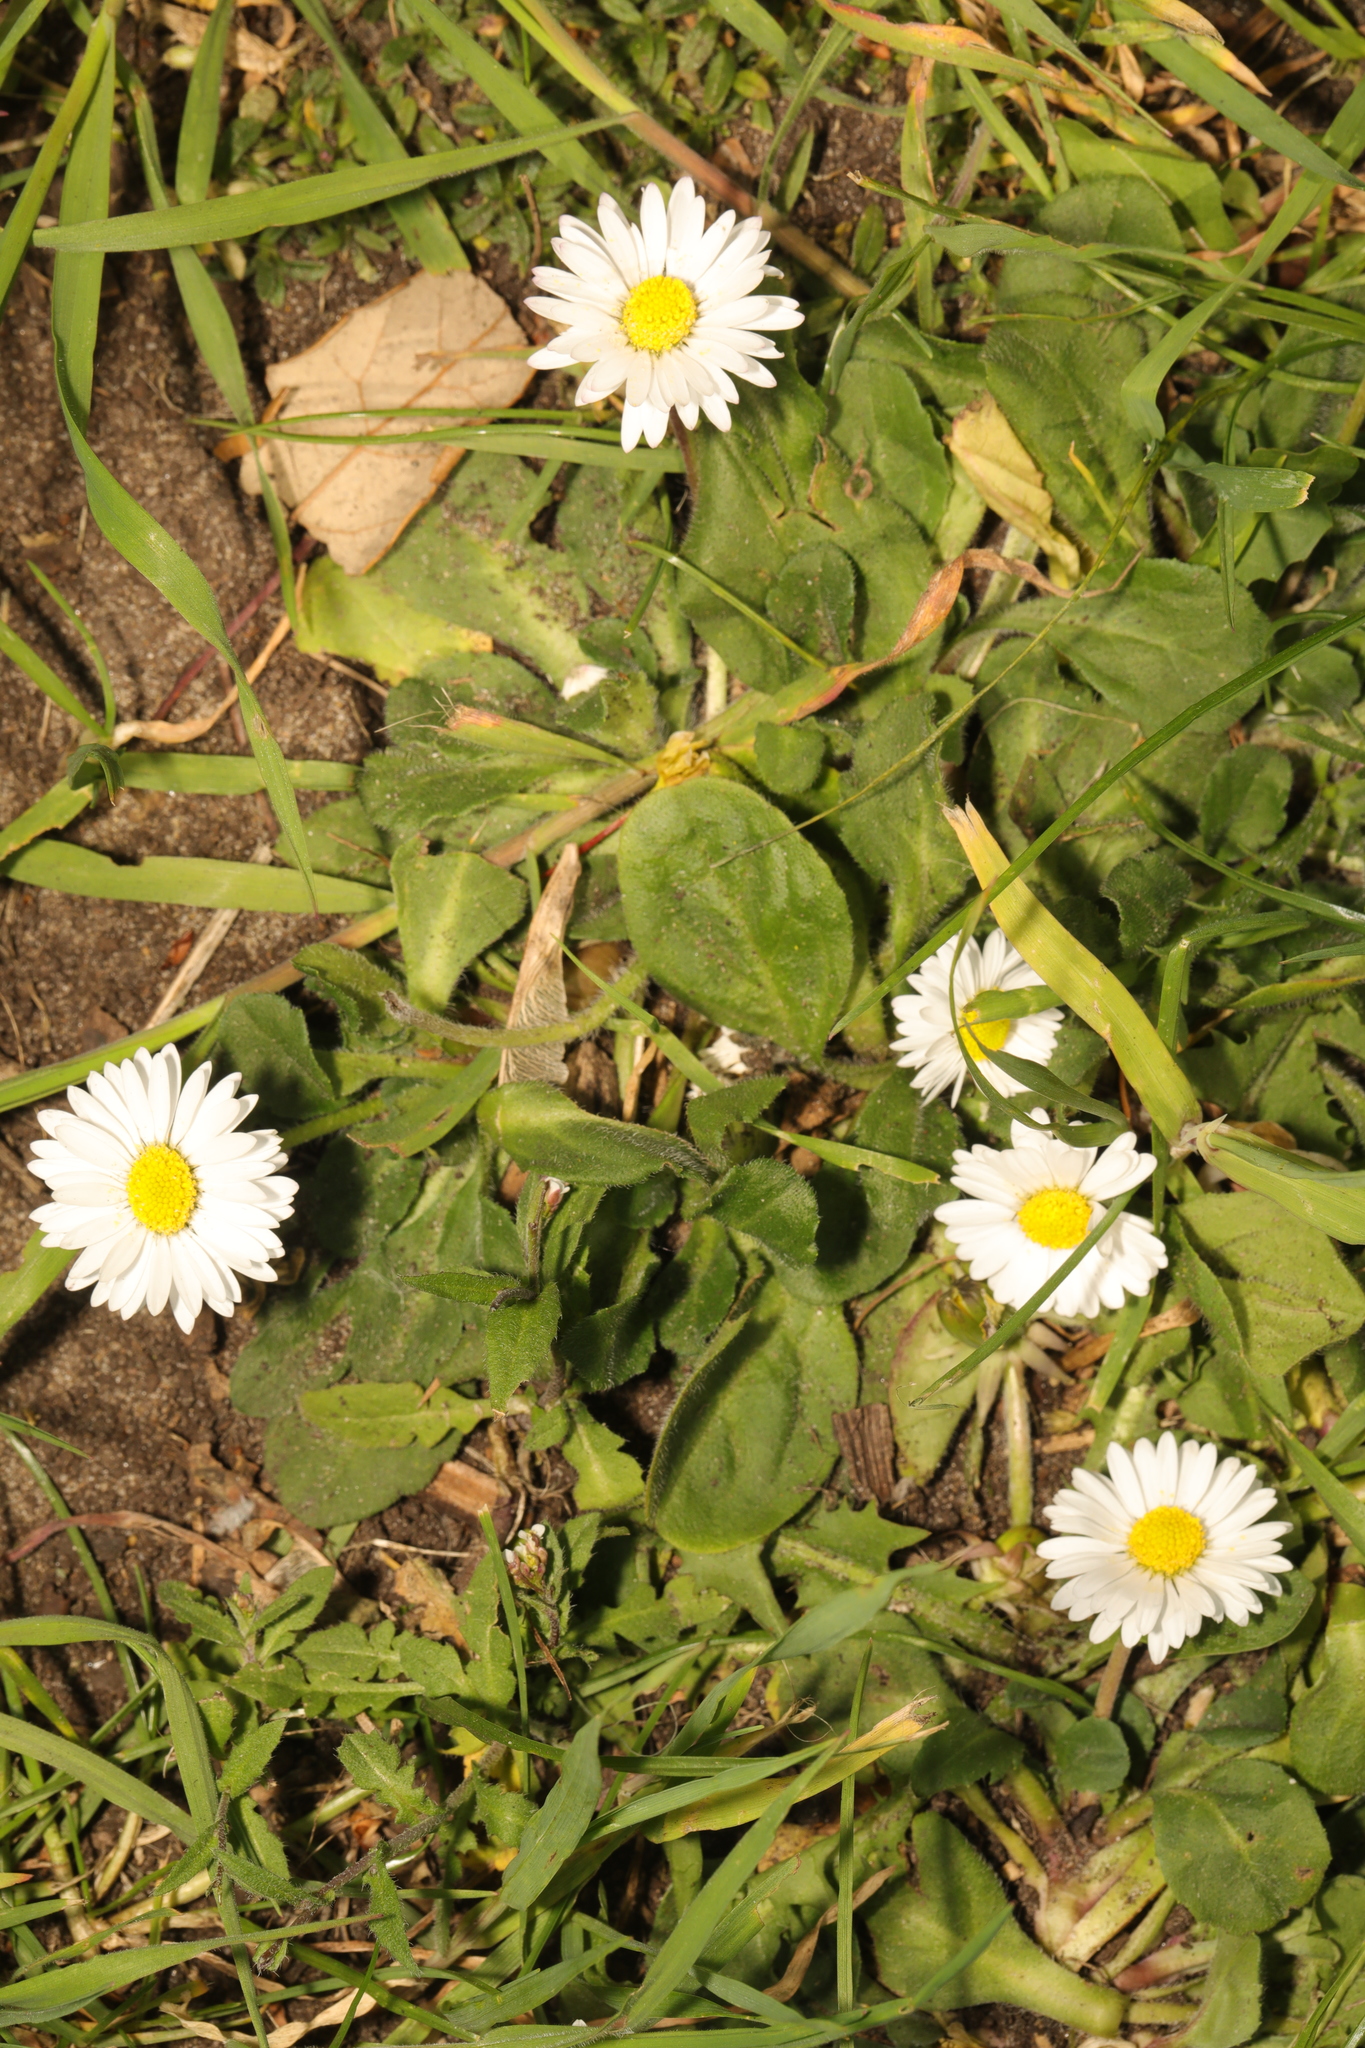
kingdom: Plantae
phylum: Tracheophyta
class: Magnoliopsida
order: Asterales
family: Asteraceae
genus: Bellis
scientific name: Bellis perennis
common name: Lawndaisy
